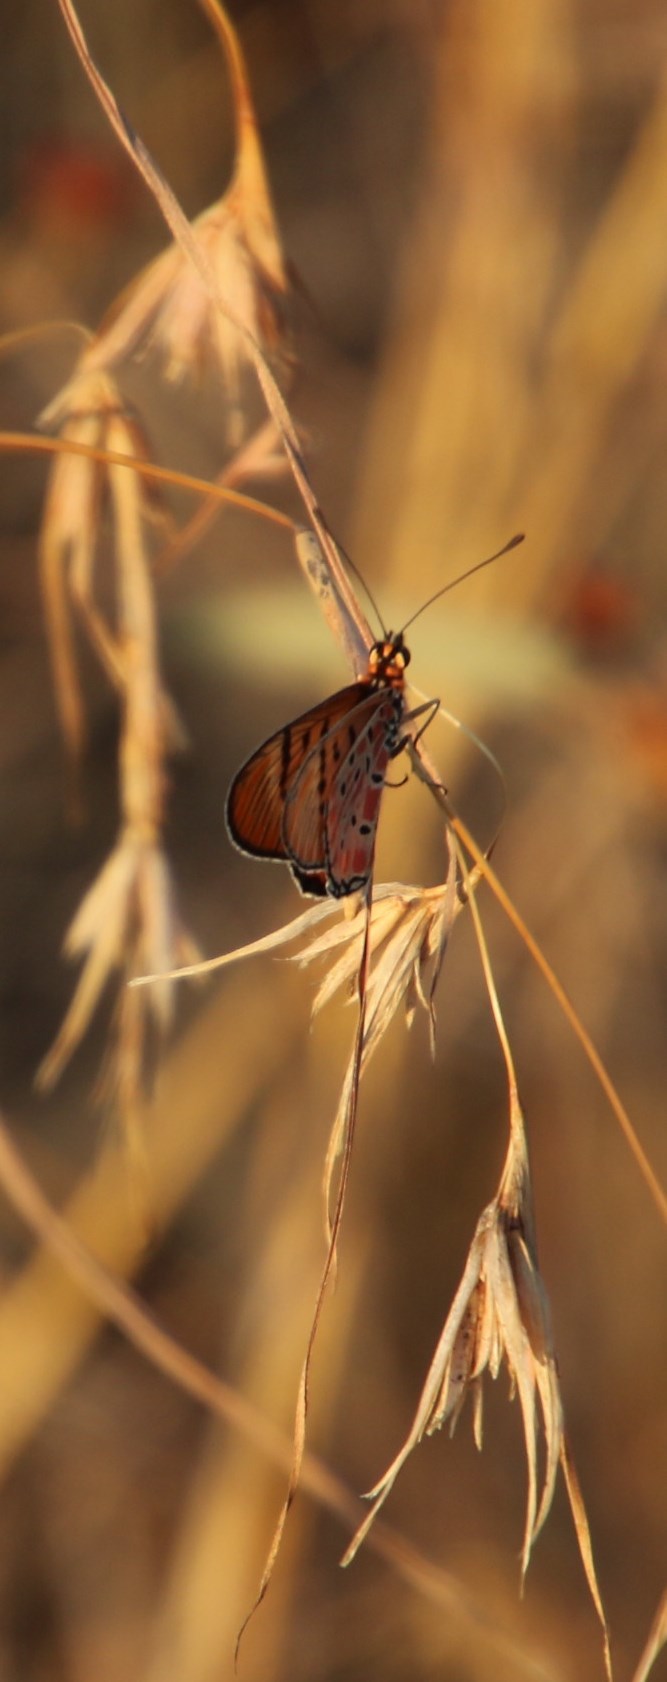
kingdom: Animalia
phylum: Arthropoda
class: Insecta
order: Lepidoptera
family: Nymphalidae
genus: Stephenia
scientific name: Stephenia
